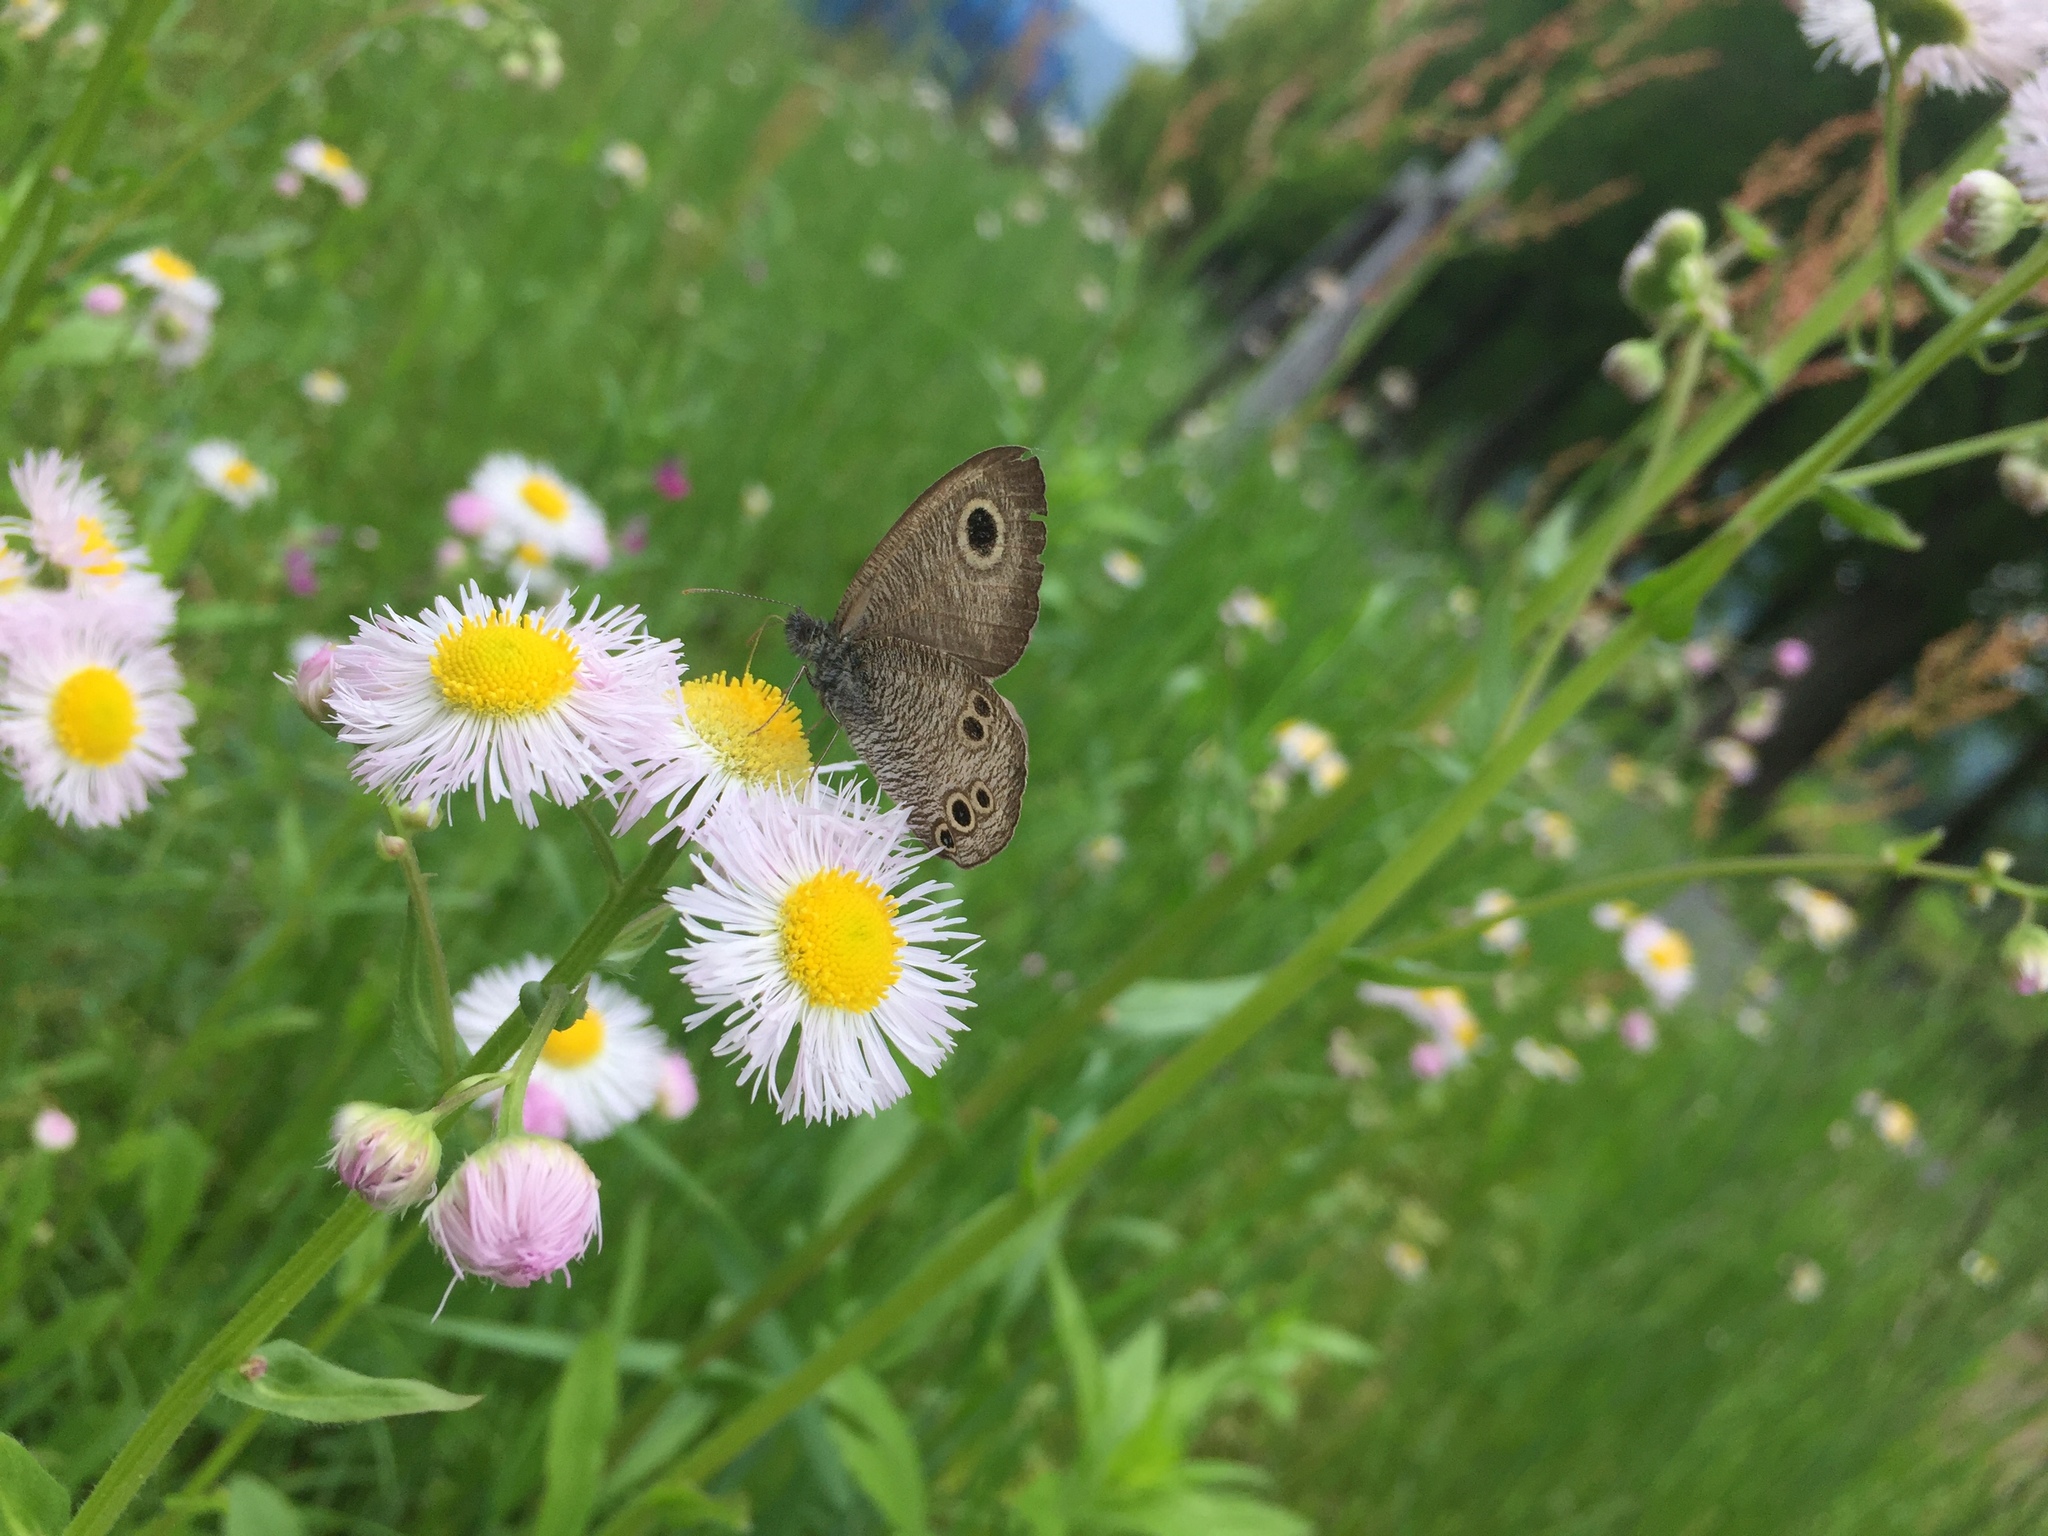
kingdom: Animalia
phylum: Arthropoda
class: Insecta
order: Lepidoptera
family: Nymphalidae
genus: Ypthima
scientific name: Ypthima argus
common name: Common fivering
